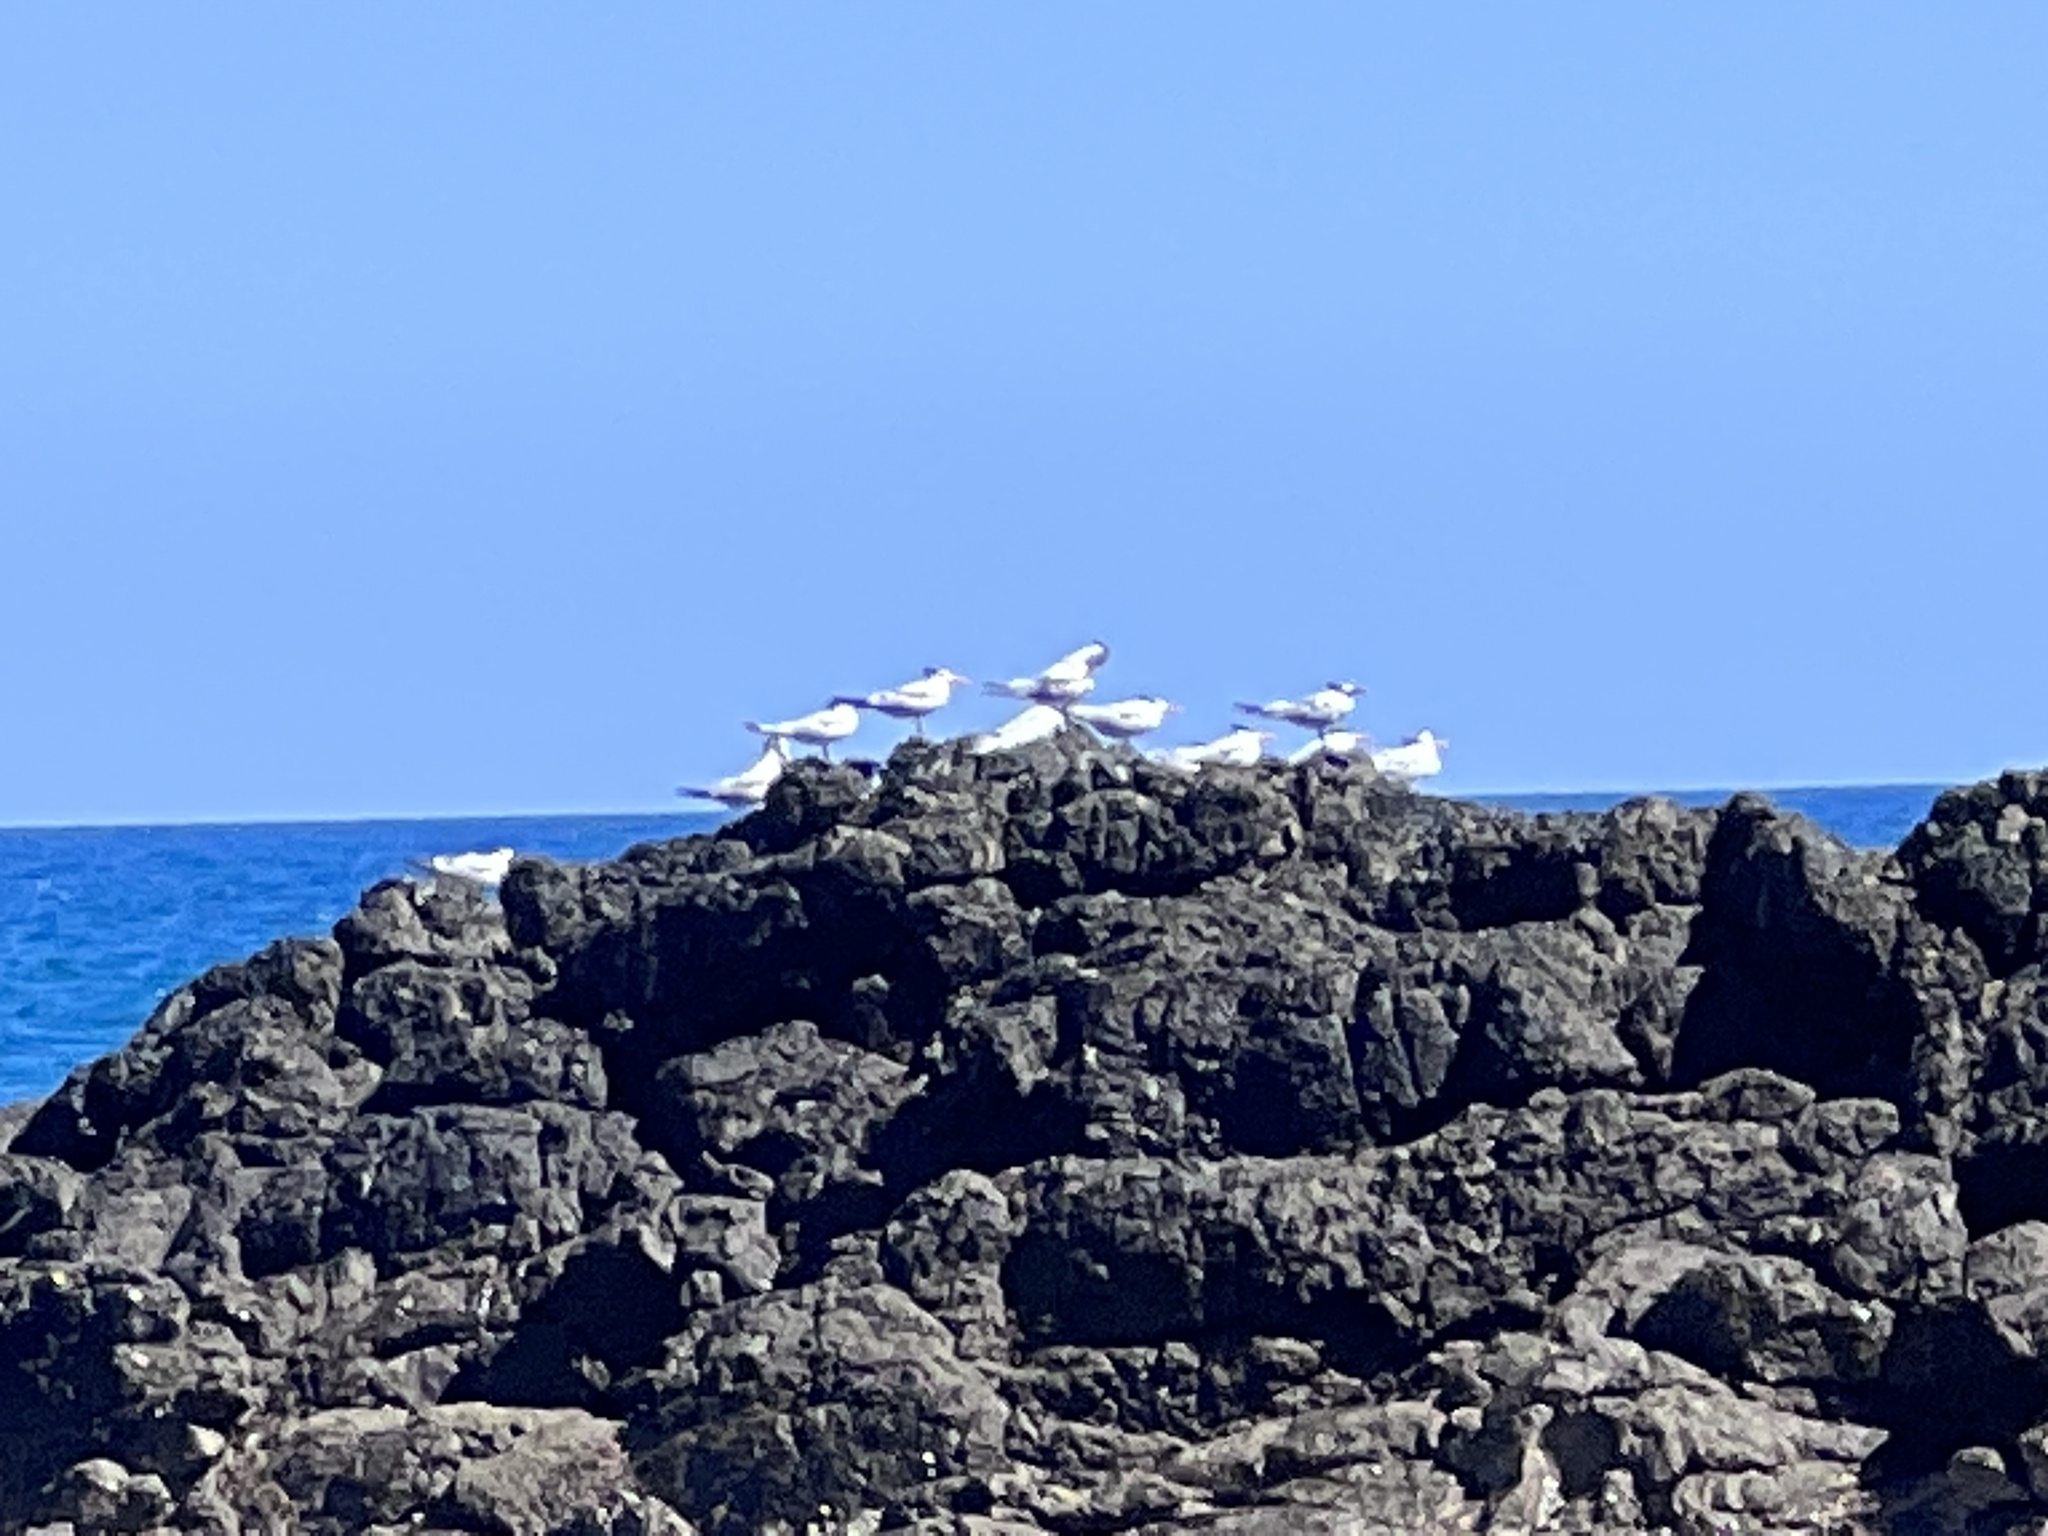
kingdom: Animalia
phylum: Chordata
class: Aves
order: Charadriiformes
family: Laridae
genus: Thalasseus
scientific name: Thalasseus maximus
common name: Royal tern
